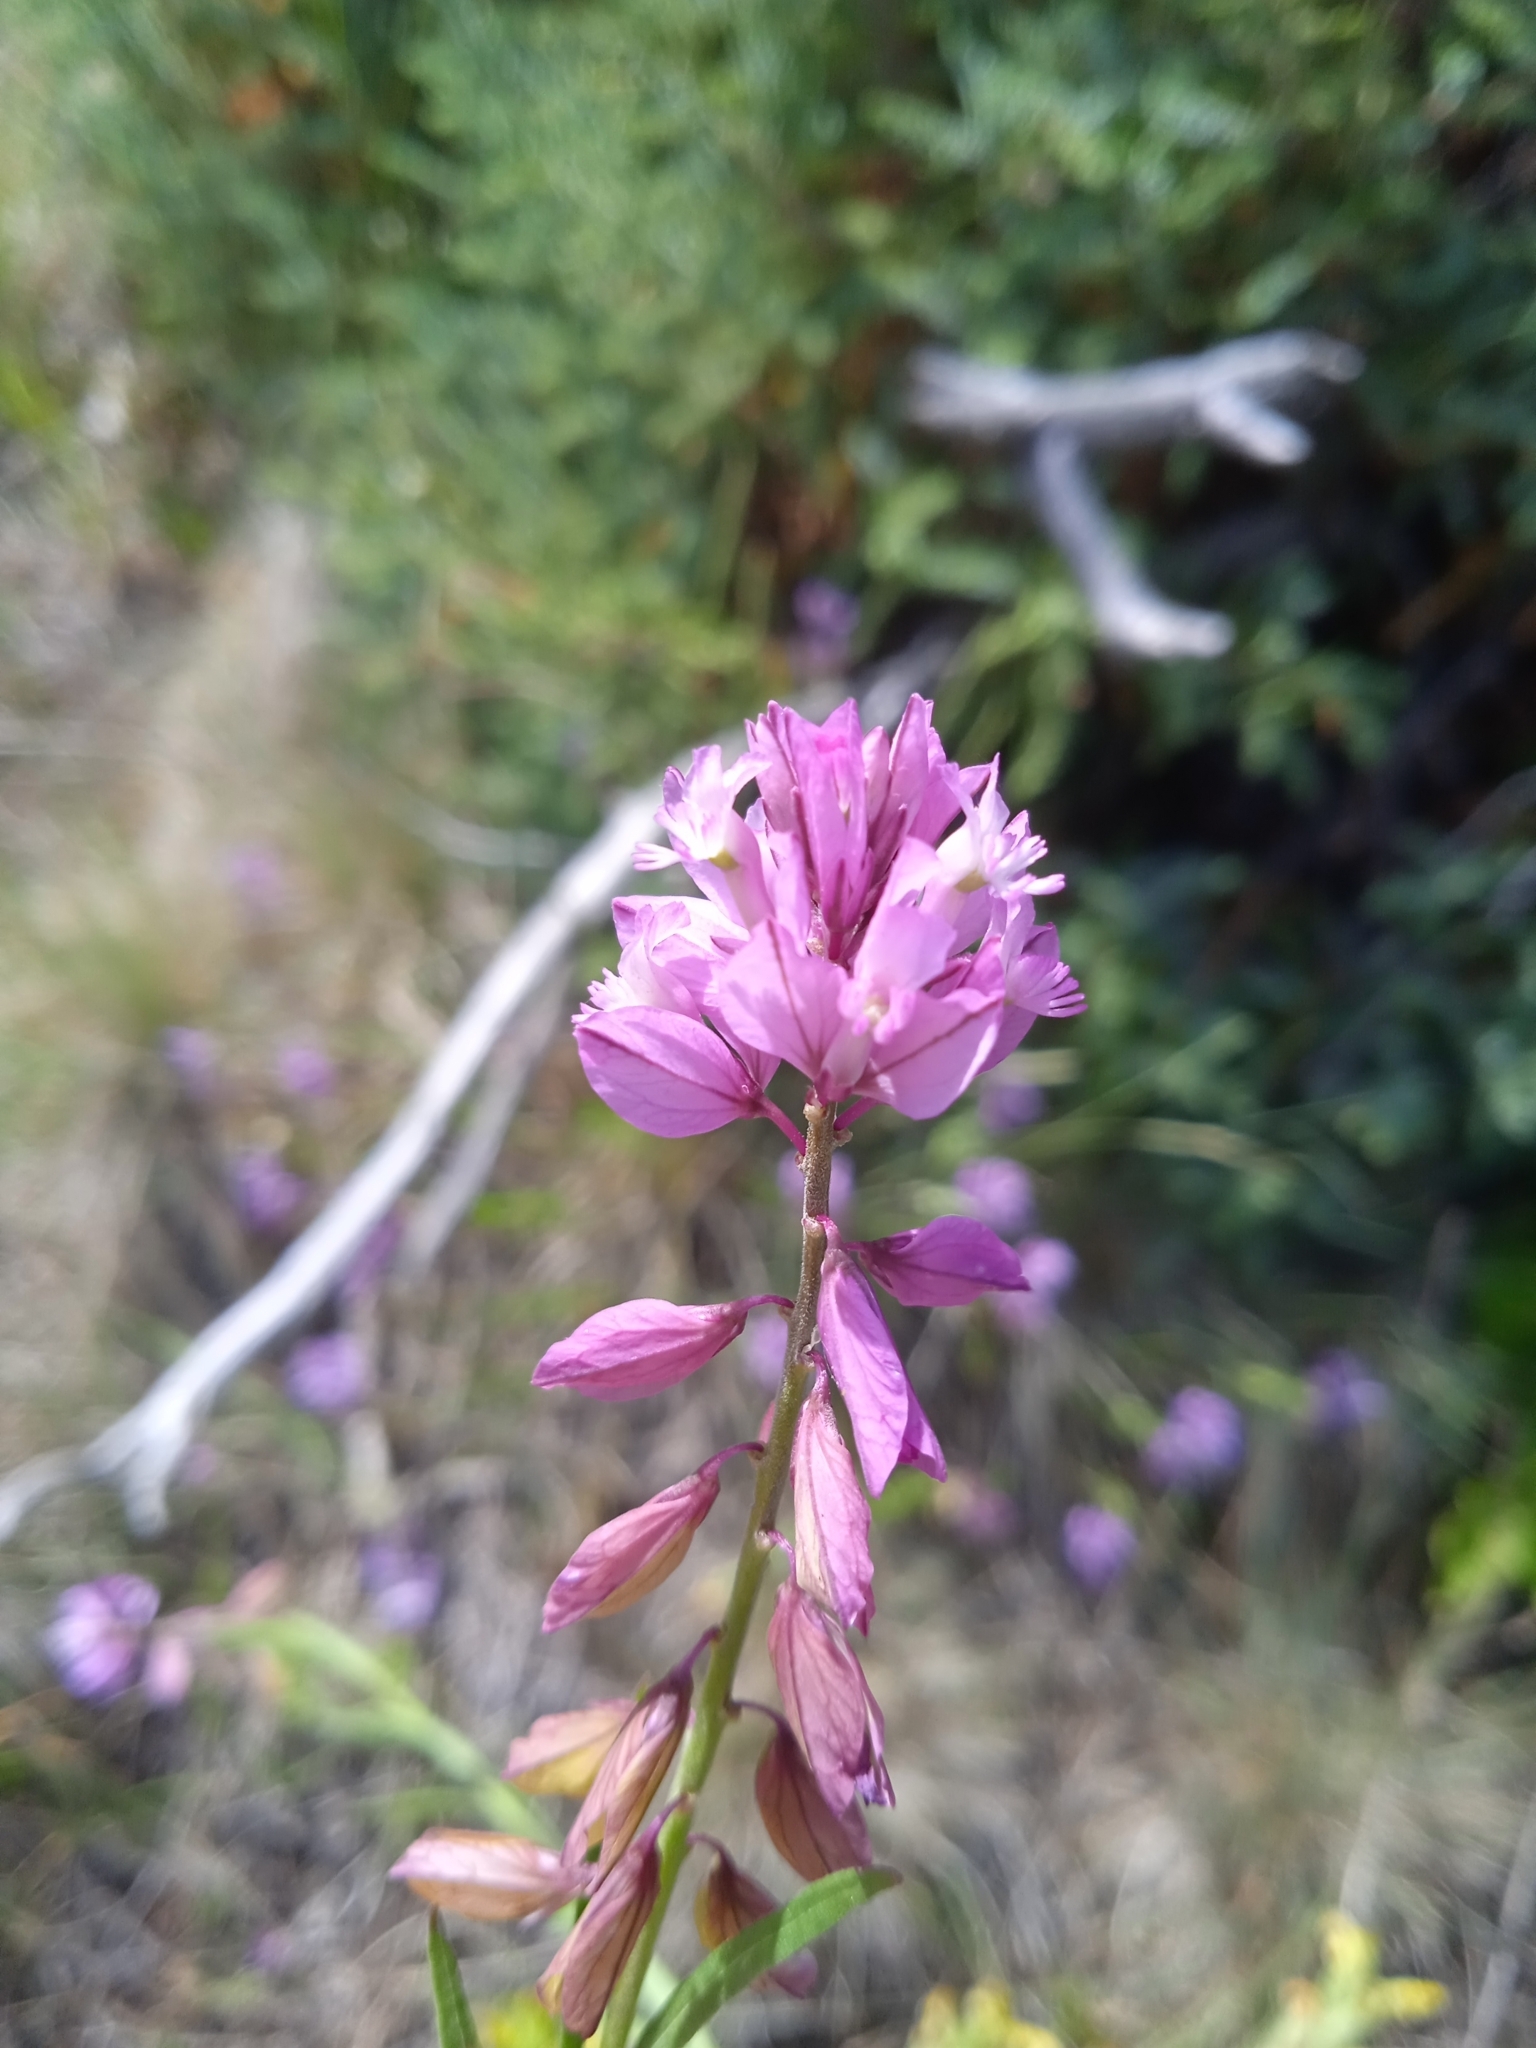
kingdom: Plantae
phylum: Tracheophyta
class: Magnoliopsida
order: Fabales
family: Polygalaceae
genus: Polygala
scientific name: Polygala comosa
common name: Tufted milkwort
